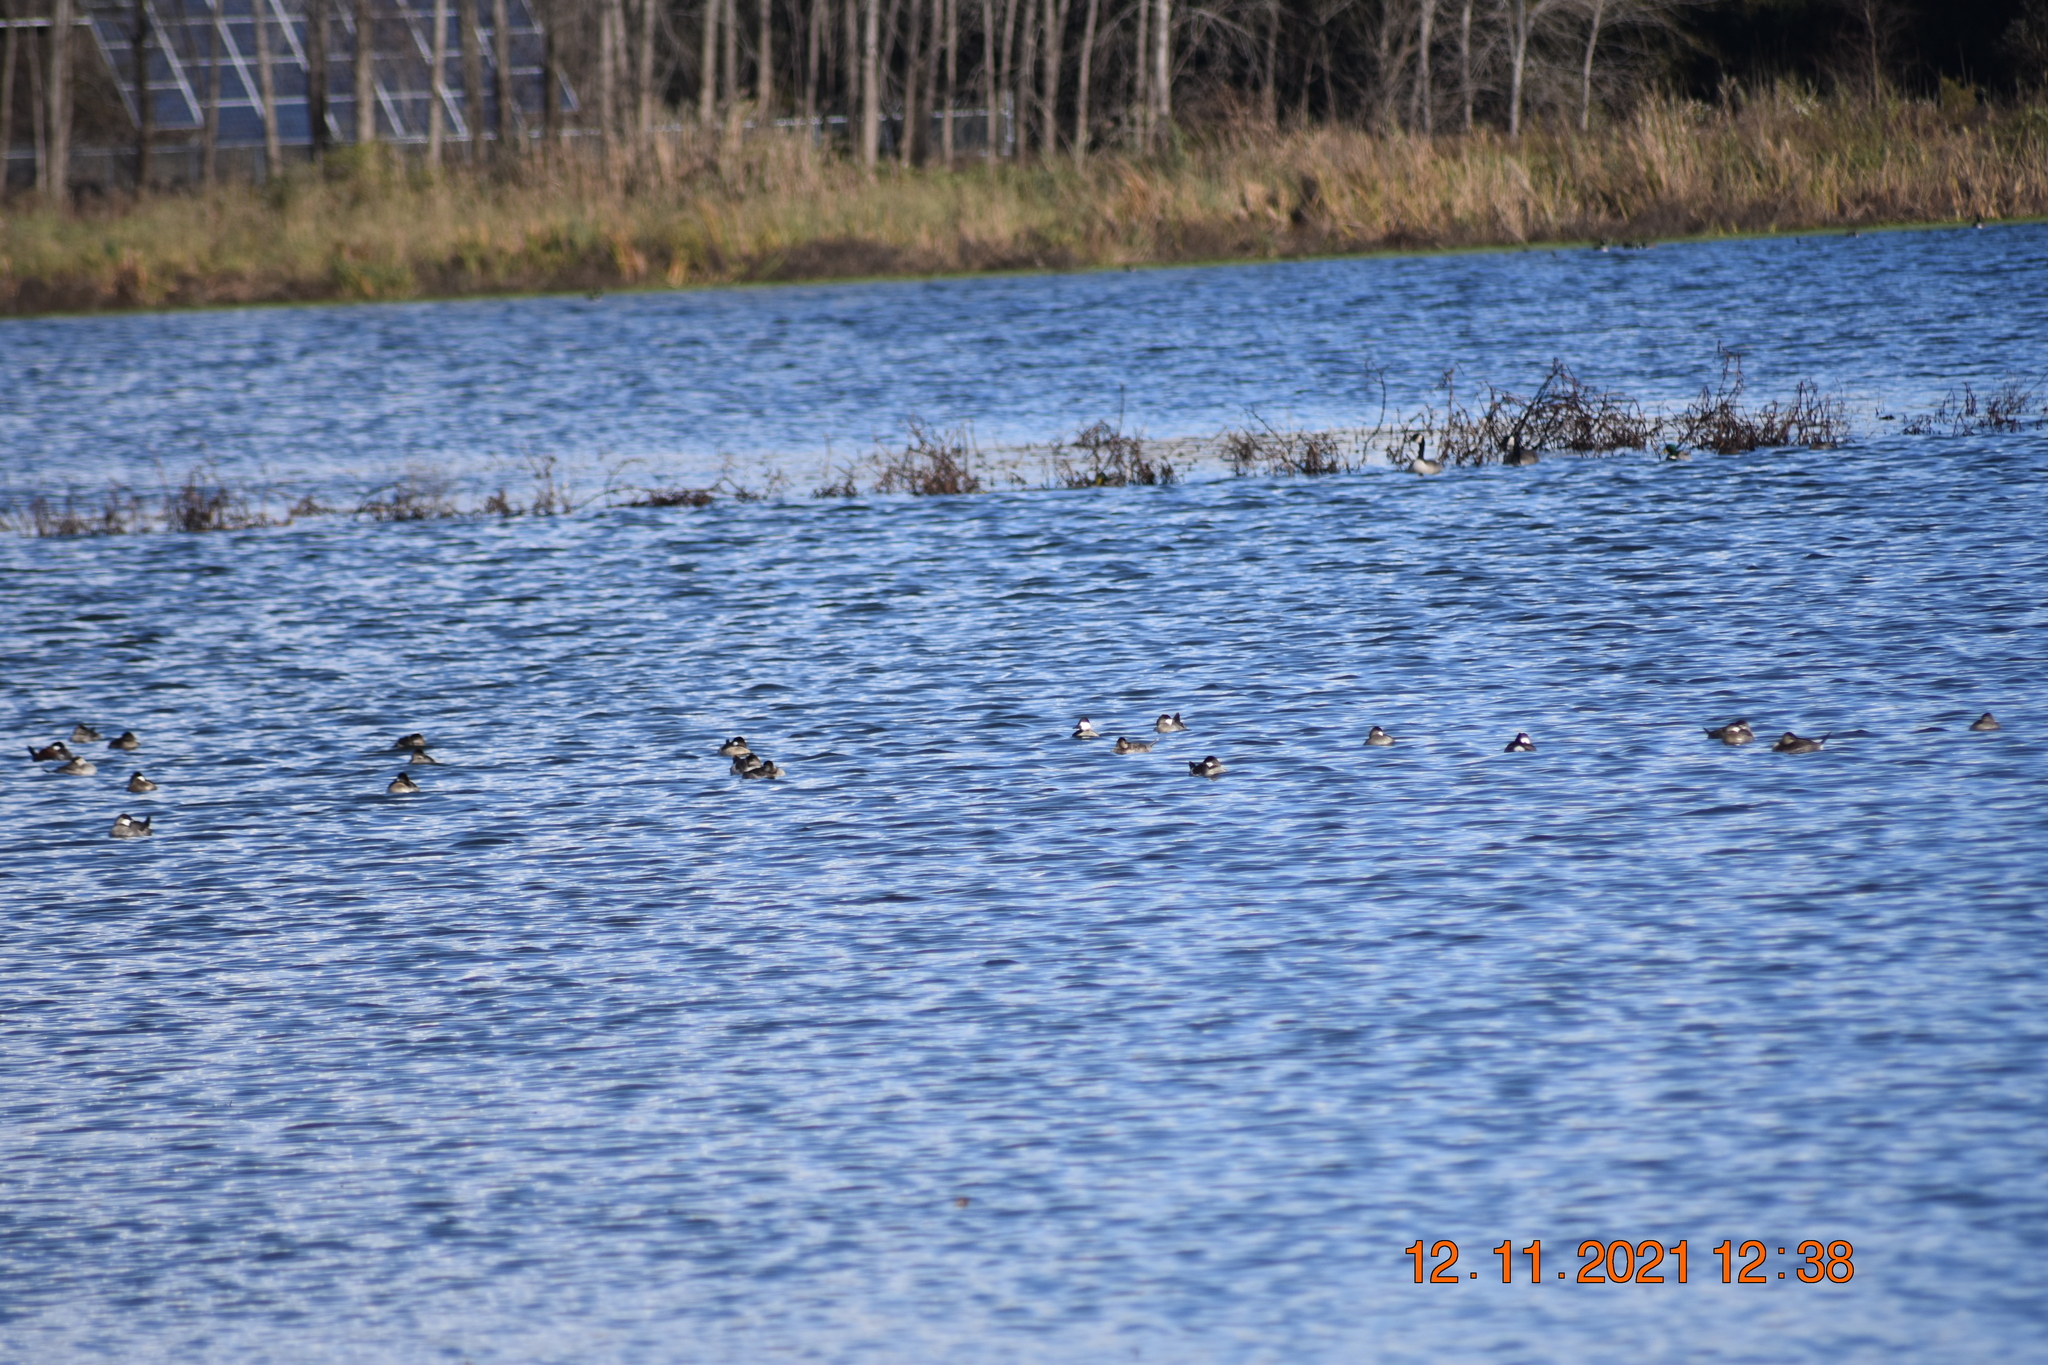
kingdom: Animalia
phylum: Chordata
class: Aves
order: Anseriformes
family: Anatidae
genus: Oxyura
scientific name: Oxyura jamaicensis
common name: Ruddy duck
